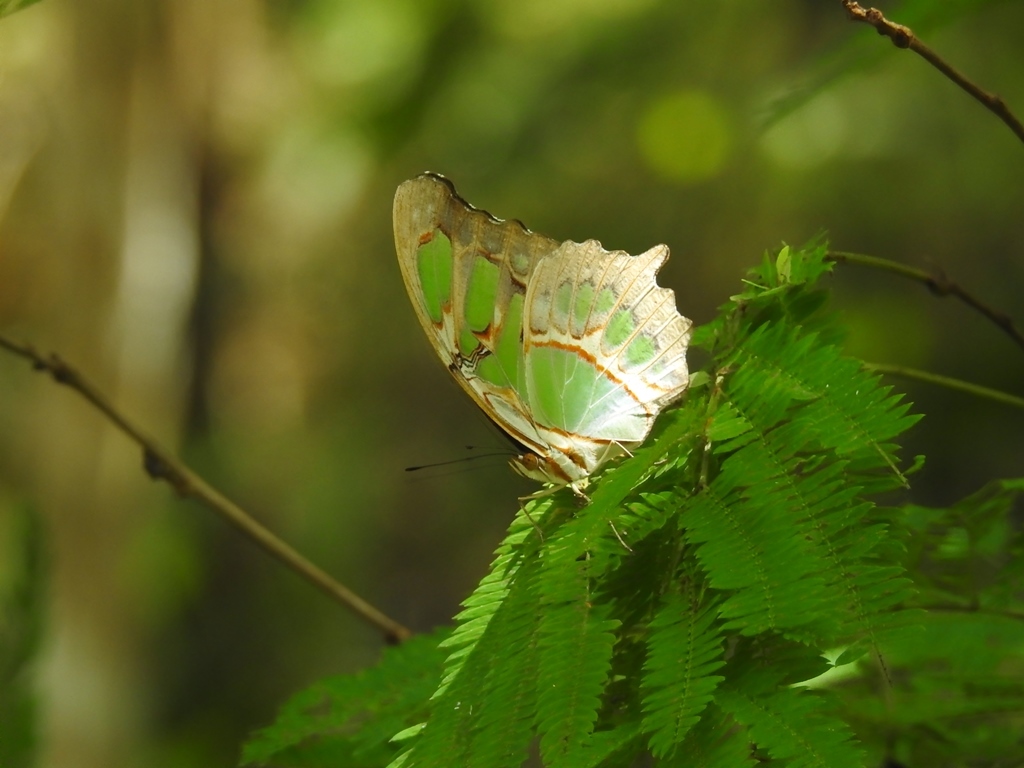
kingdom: Animalia
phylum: Arthropoda
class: Insecta
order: Lepidoptera
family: Nymphalidae
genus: Siproeta
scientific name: Siproeta stelenes
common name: Malachite
